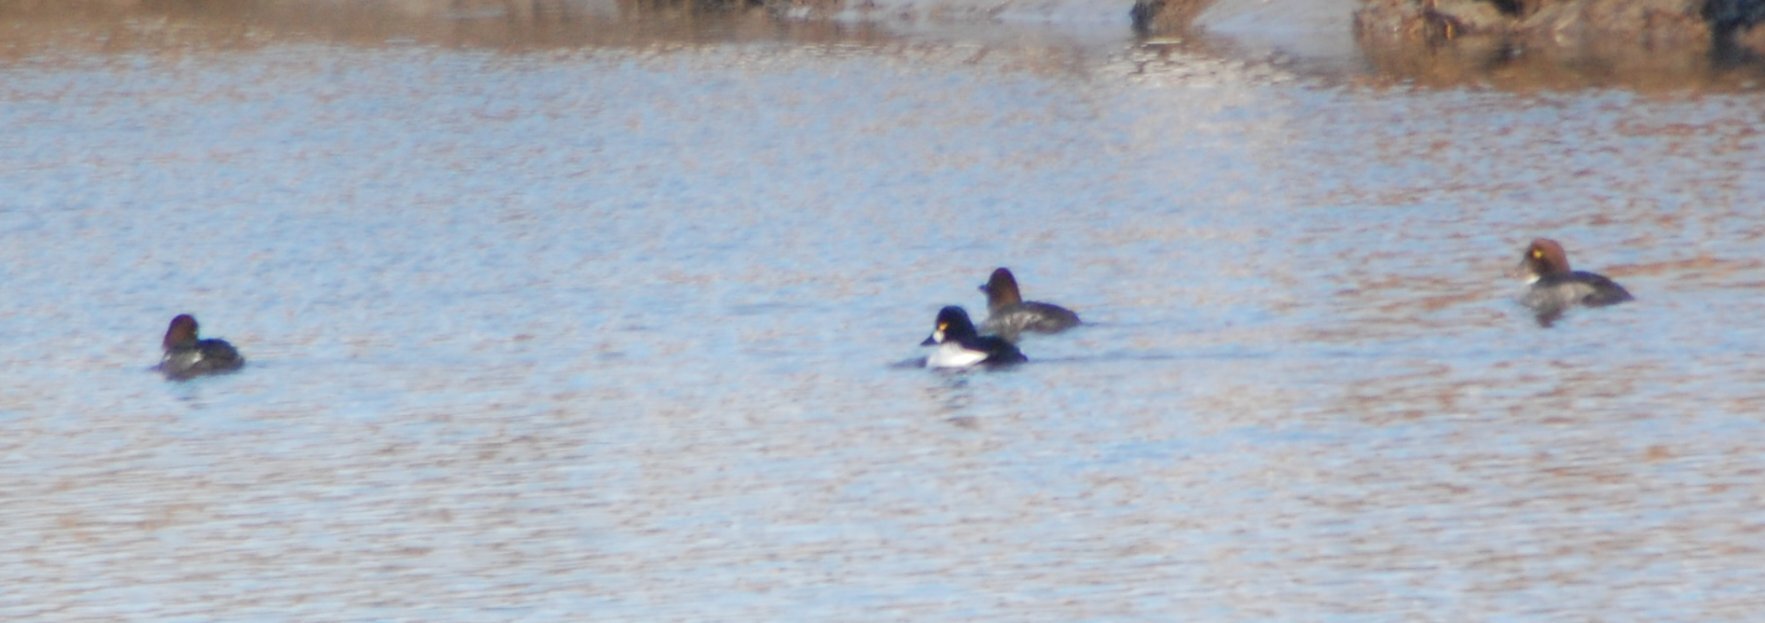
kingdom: Animalia
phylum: Chordata
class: Aves
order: Anseriformes
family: Anatidae
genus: Bucephala
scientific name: Bucephala clangula
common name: Common goldeneye
